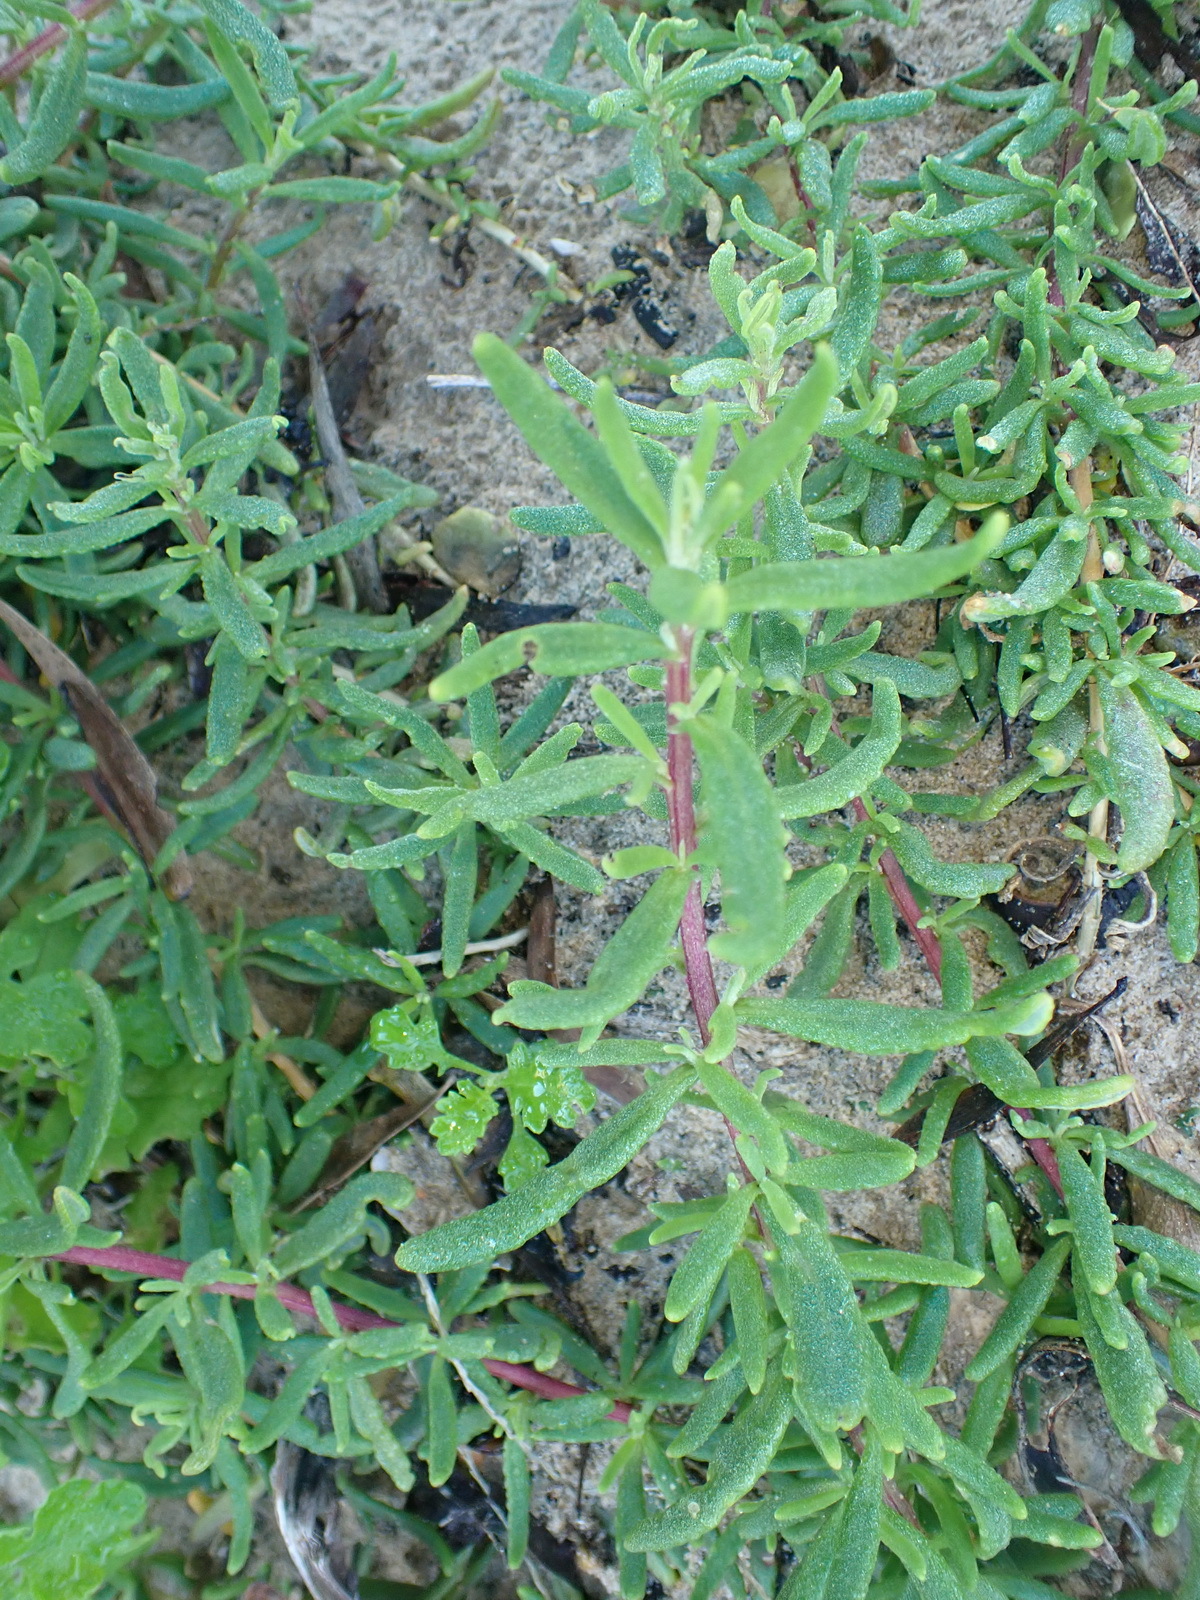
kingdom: Plantae
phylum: Tracheophyta
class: Magnoliopsida
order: Caryophyllales
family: Aizoaceae
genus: Tetragonia
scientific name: Tetragonia fruticosa
